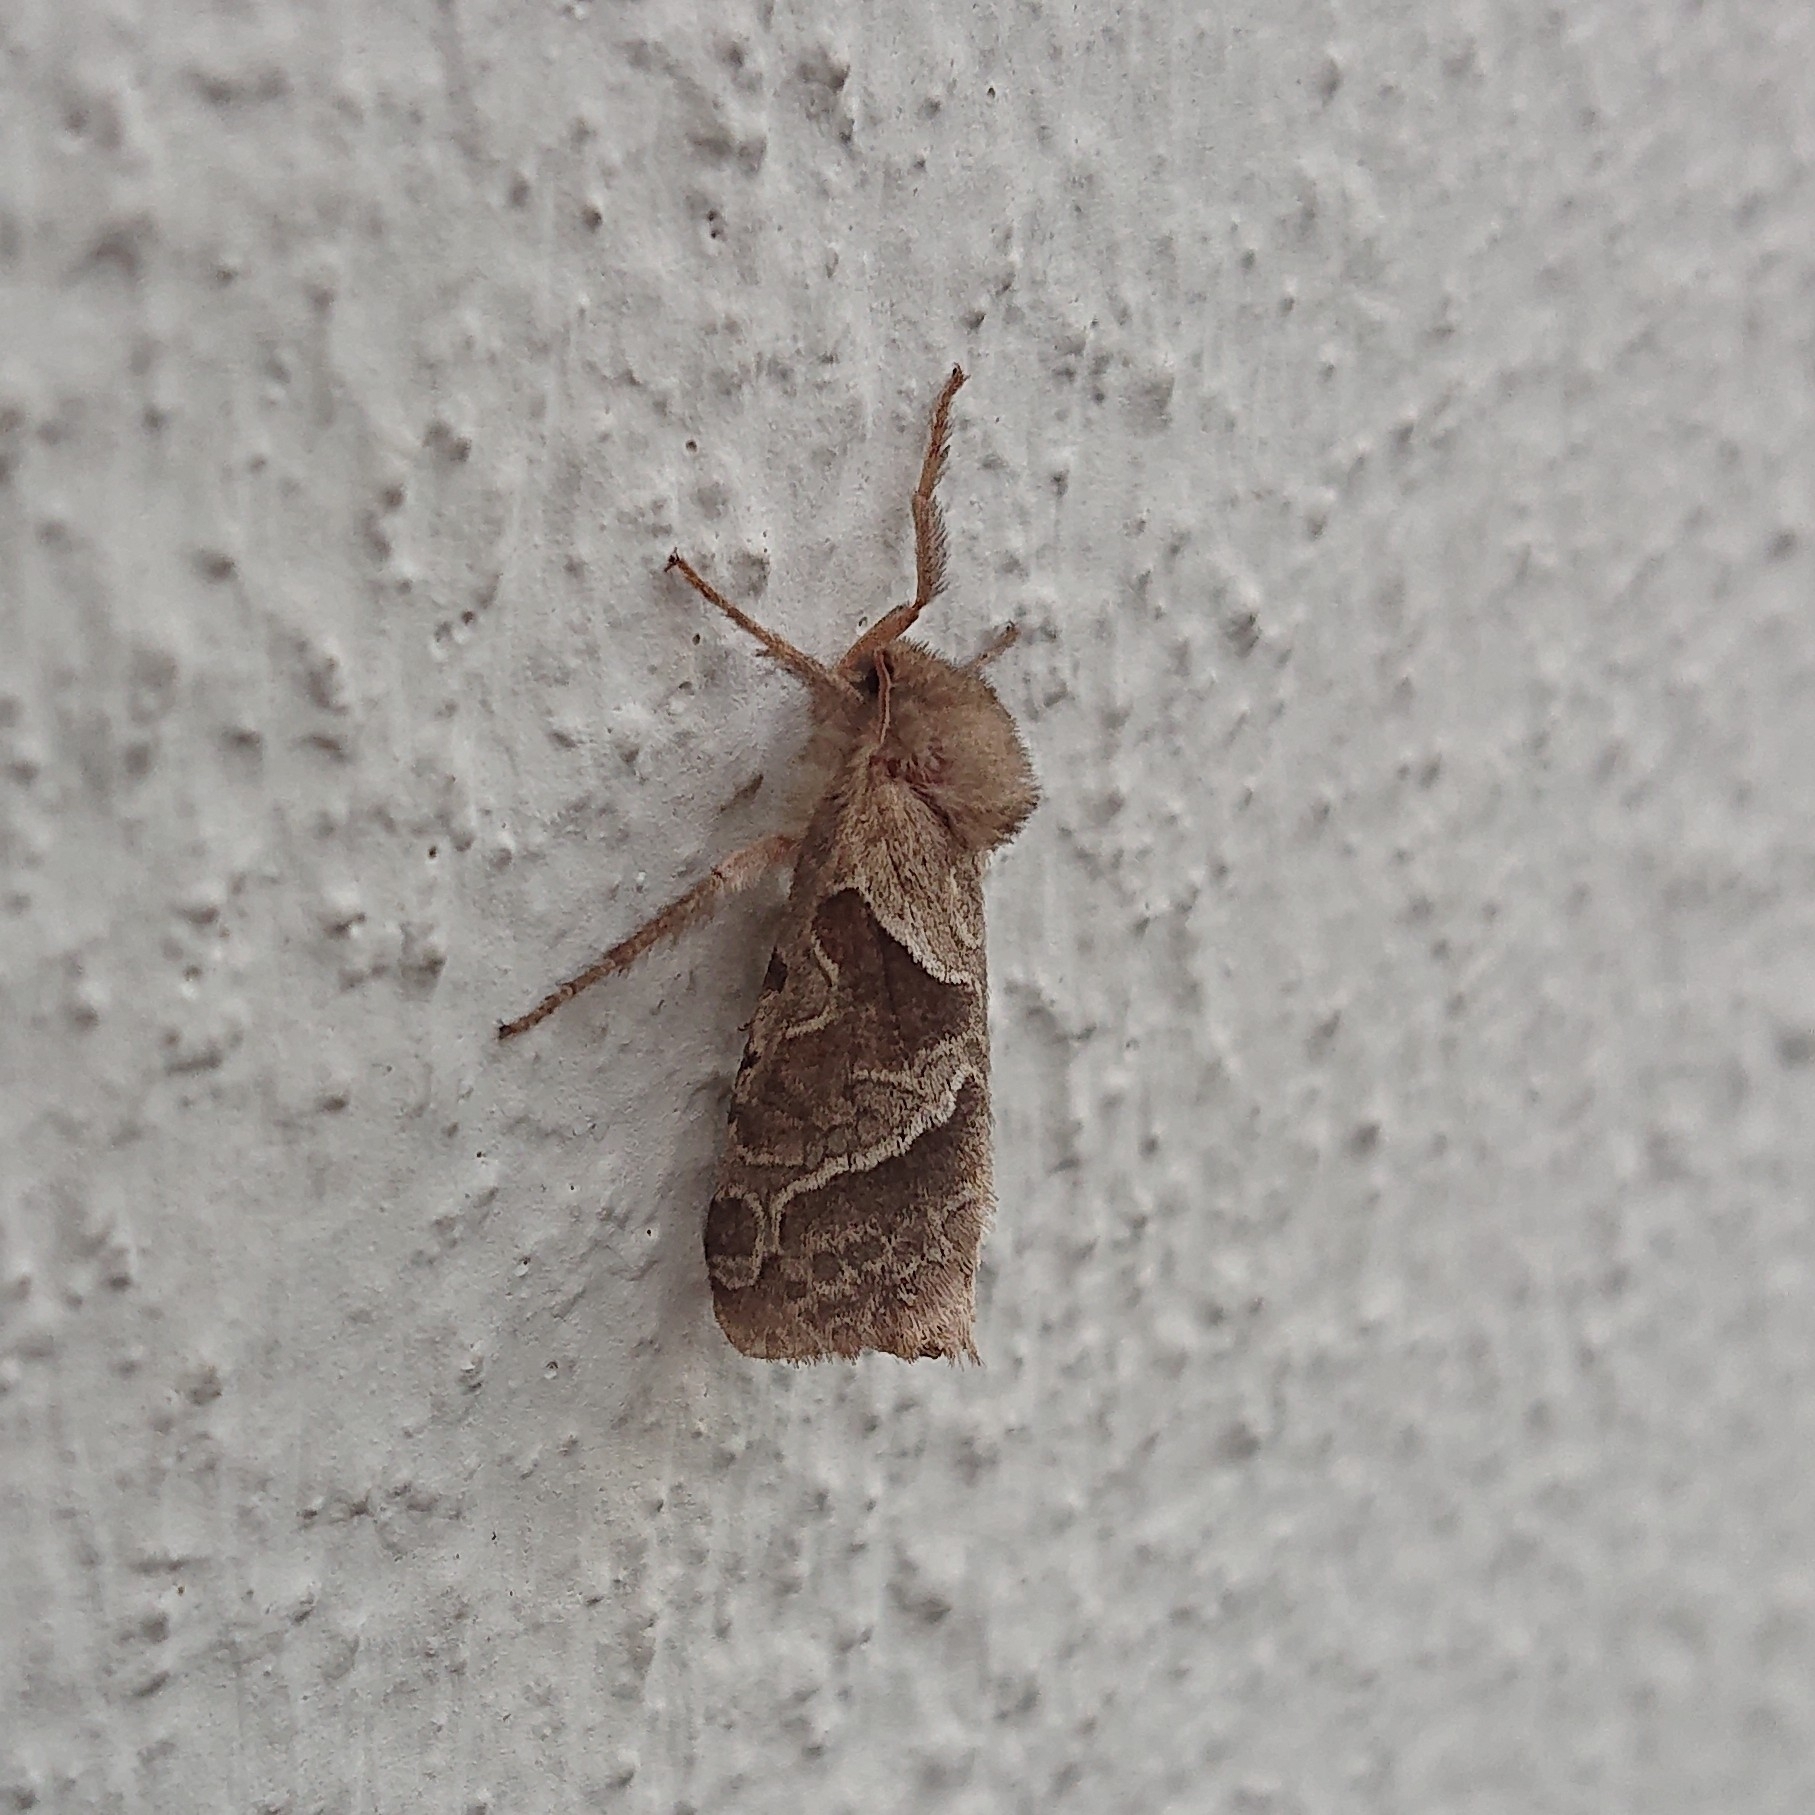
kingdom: Animalia
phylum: Arthropoda
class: Insecta
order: Lepidoptera
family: Hepialidae
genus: Triodia
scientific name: Triodia sylvina
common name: Orange swift
